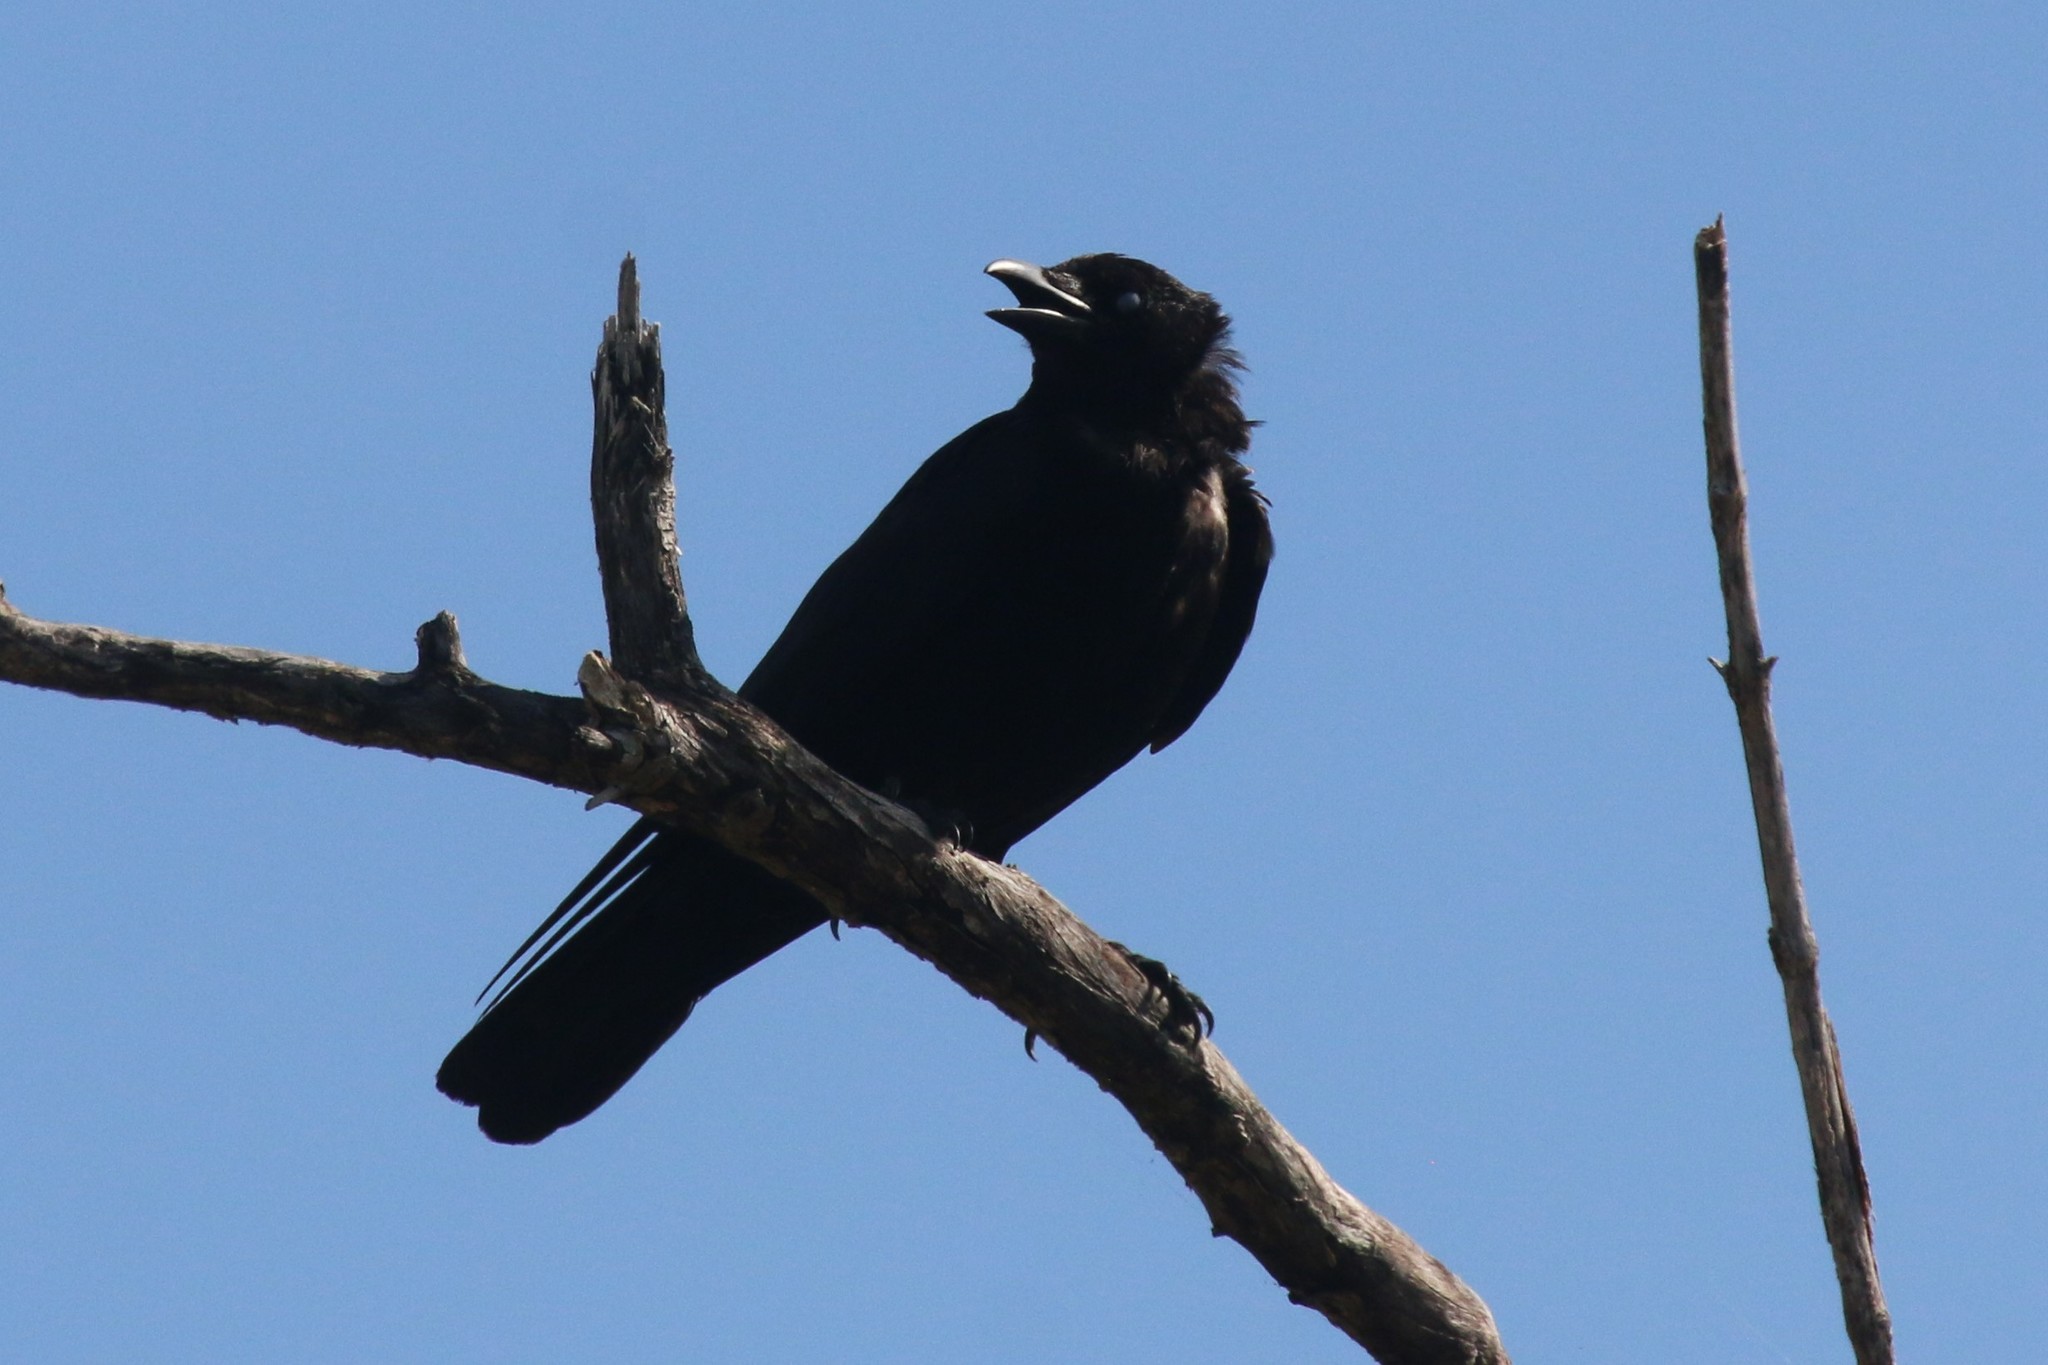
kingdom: Animalia
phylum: Chordata
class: Aves
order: Passeriformes
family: Corvidae
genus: Corvus
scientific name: Corvus brachyrhynchos
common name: American crow
